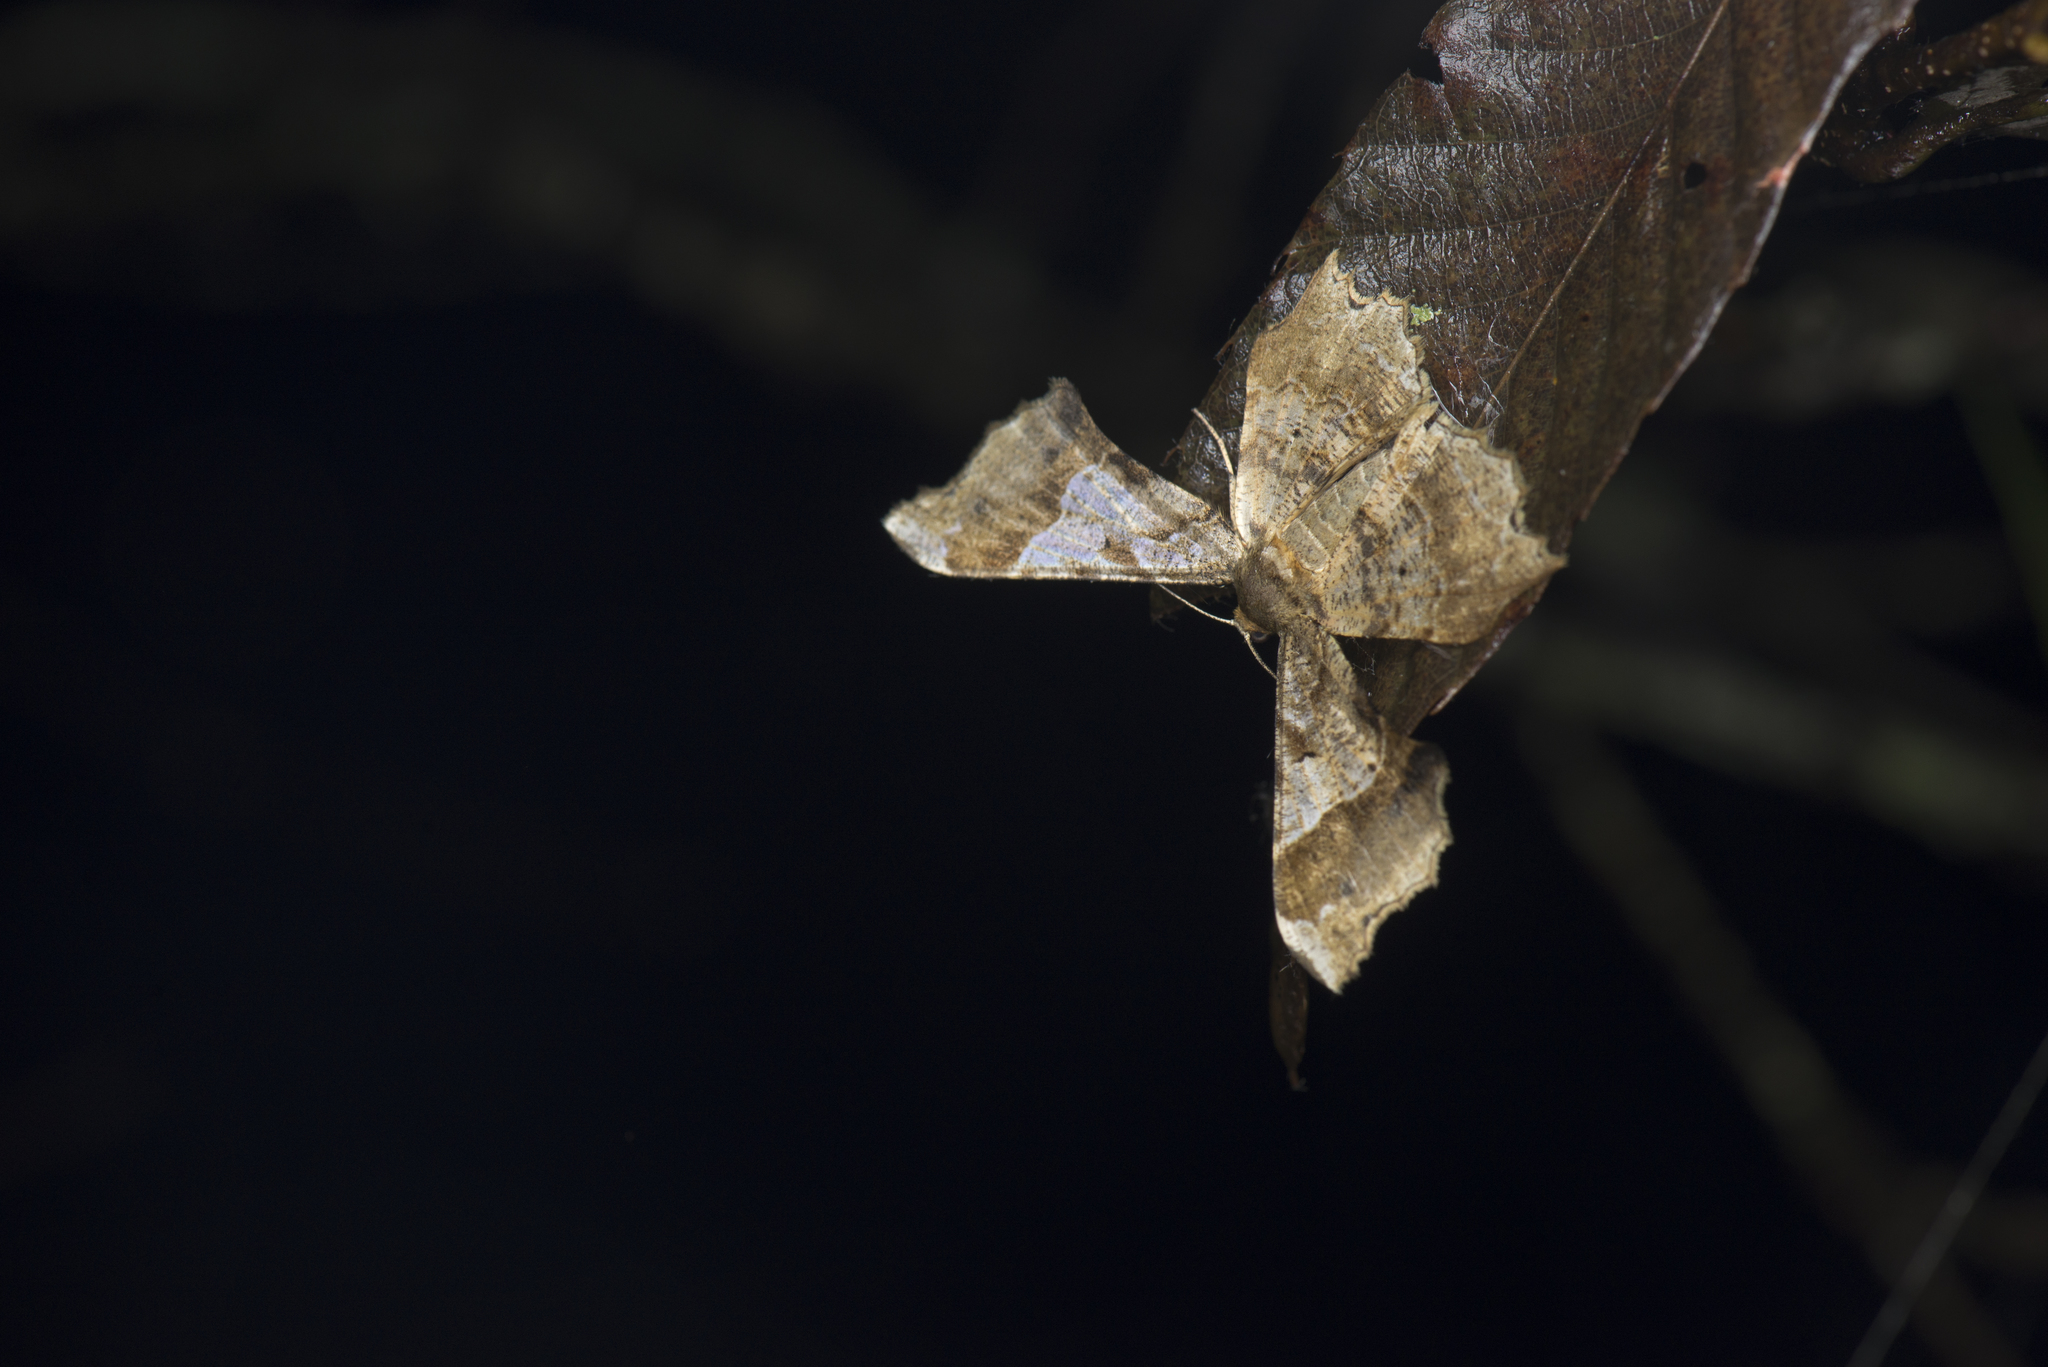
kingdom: Animalia
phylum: Arthropoda
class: Insecta
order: Lepidoptera
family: Geometridae
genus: Krananda
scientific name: Krananda oliveomarginata
